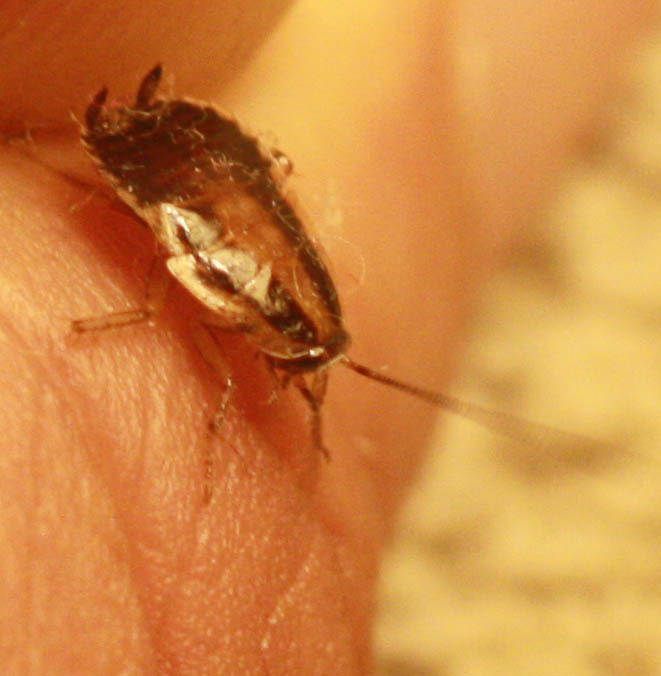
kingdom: Animalia
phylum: Arthropoda
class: Insecta
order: Blattodea
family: Ectobiidae
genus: Blattella
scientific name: Blattella germanica
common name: German cockroach
